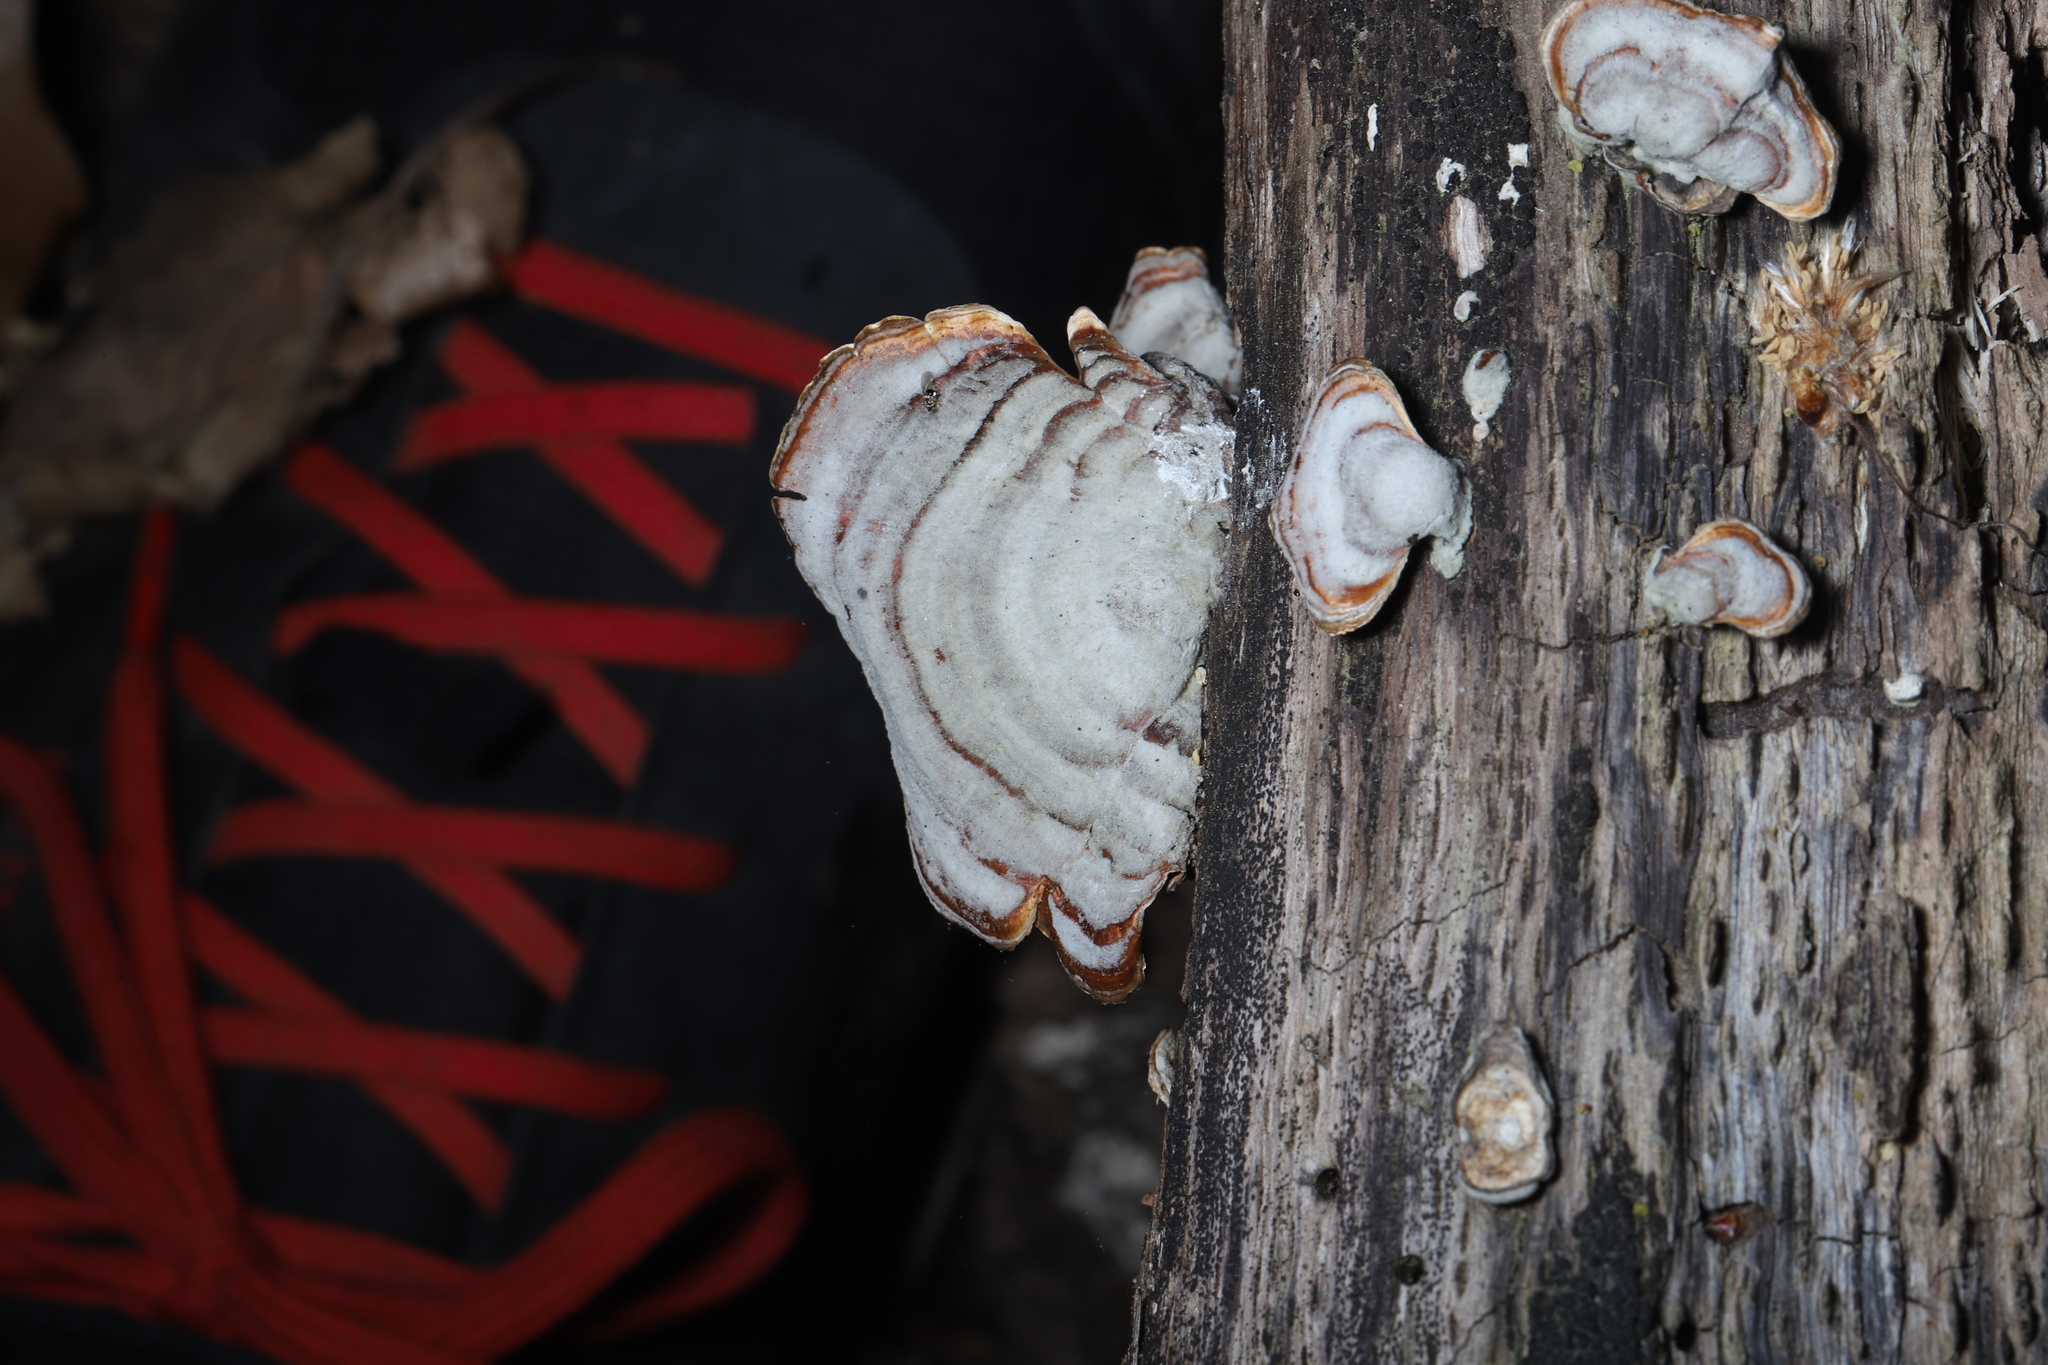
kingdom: Fungi
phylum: Basidiomycota
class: Agaricomycetes
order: Russulales
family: Stereaceae
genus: Stereum
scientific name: Stereum lobatum
